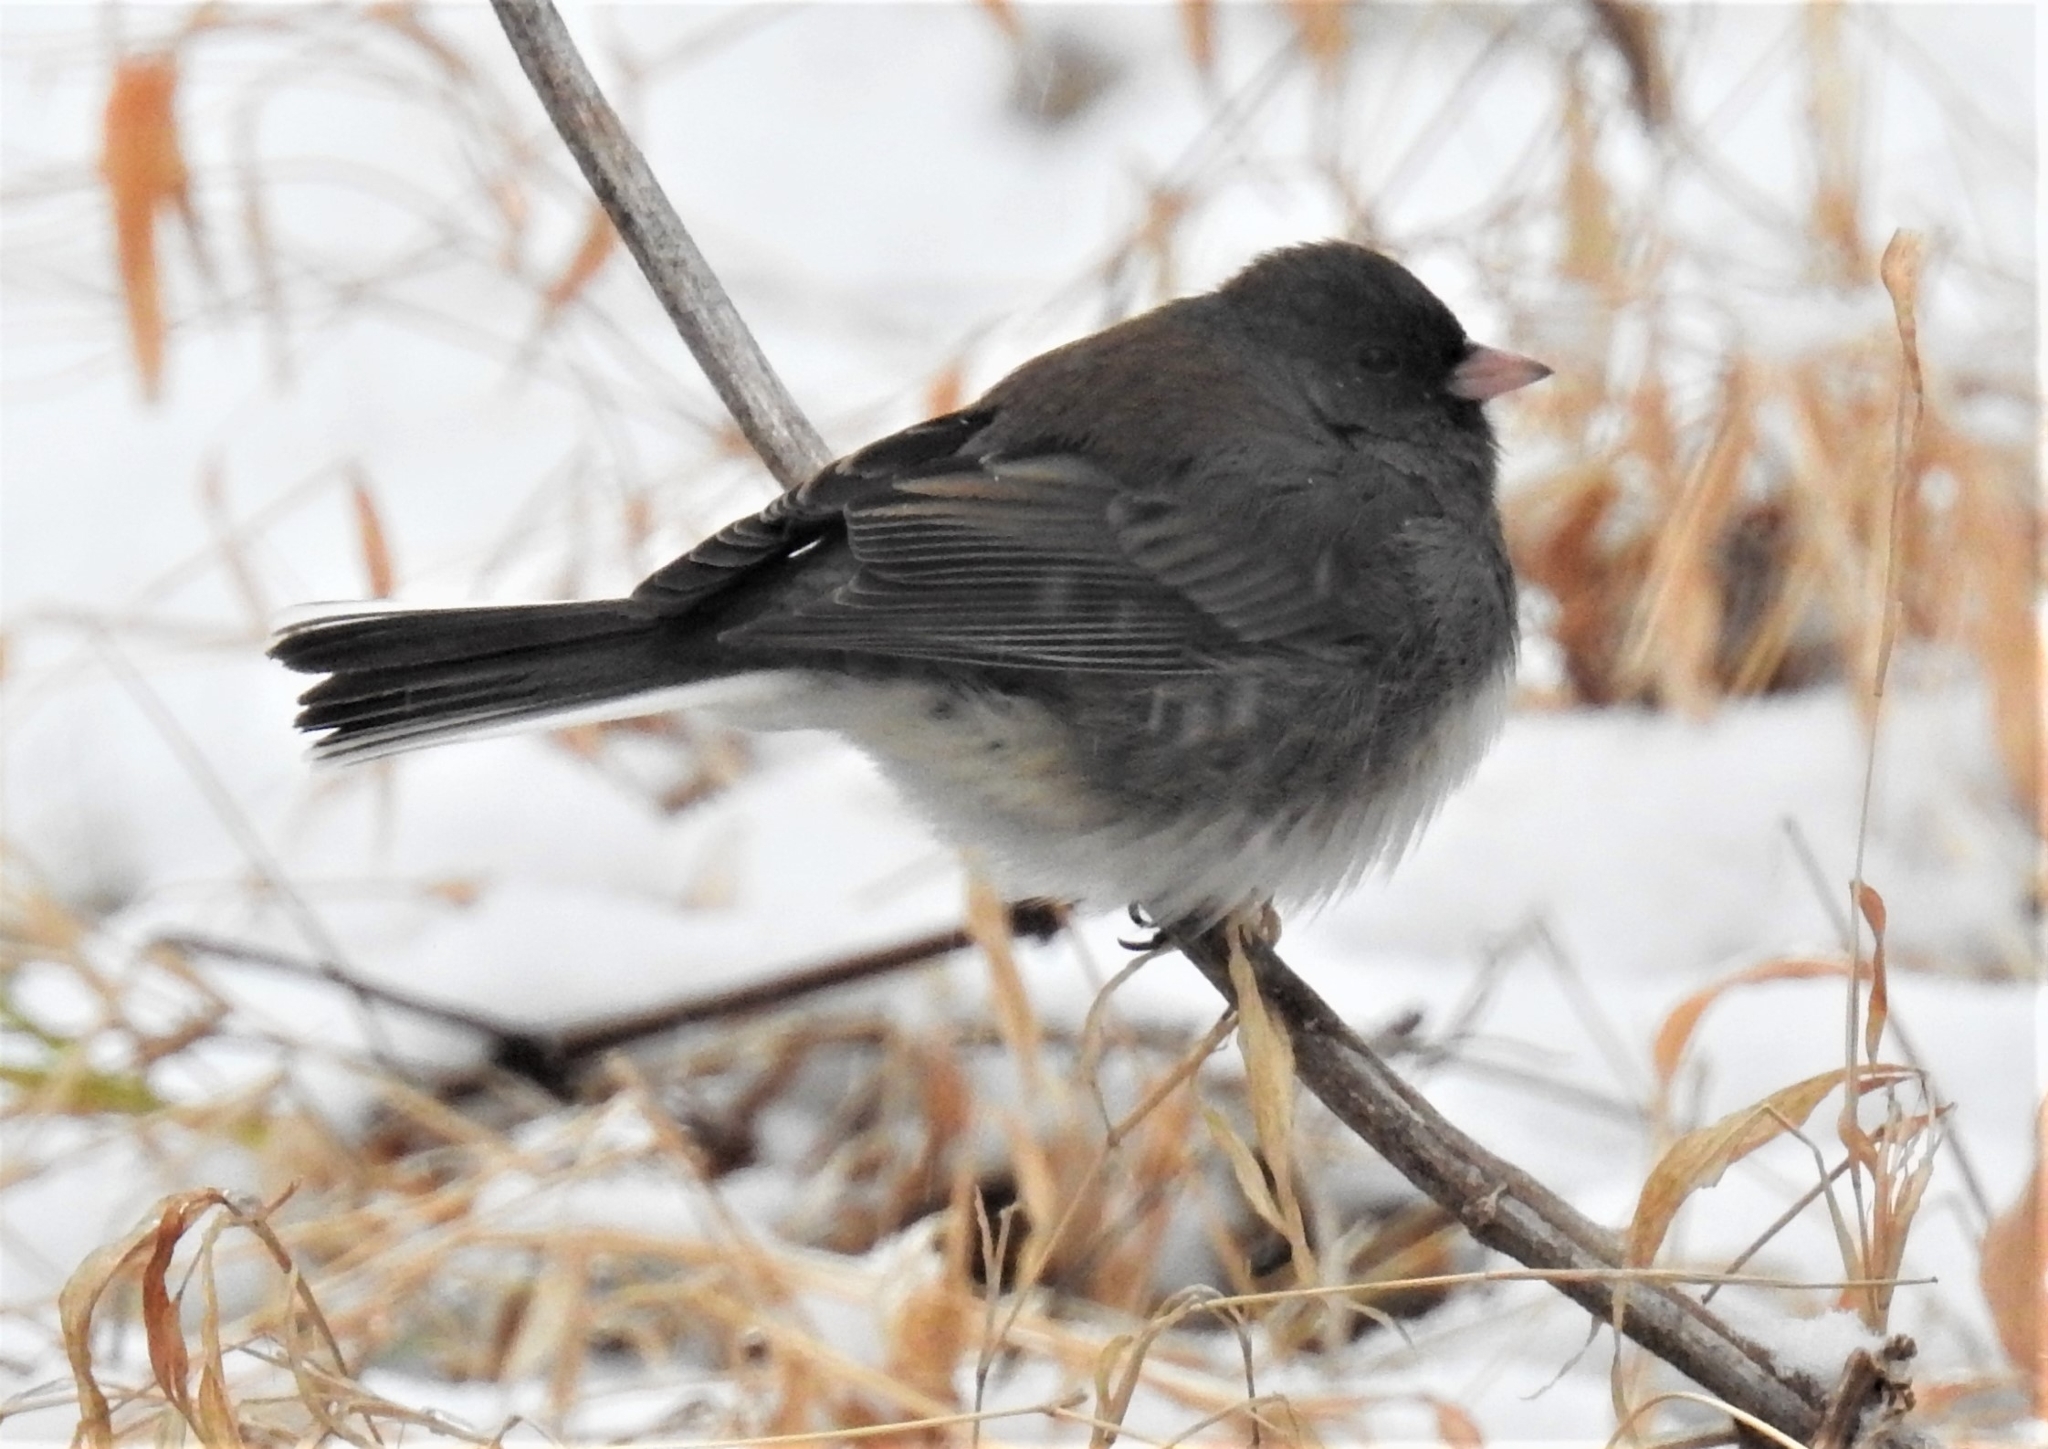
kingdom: Animalia
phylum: Chordata
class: Aves
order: Passeriformes
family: Passerellidae
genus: Junco
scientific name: Junco hyemalis
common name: Dark-eyed junco
